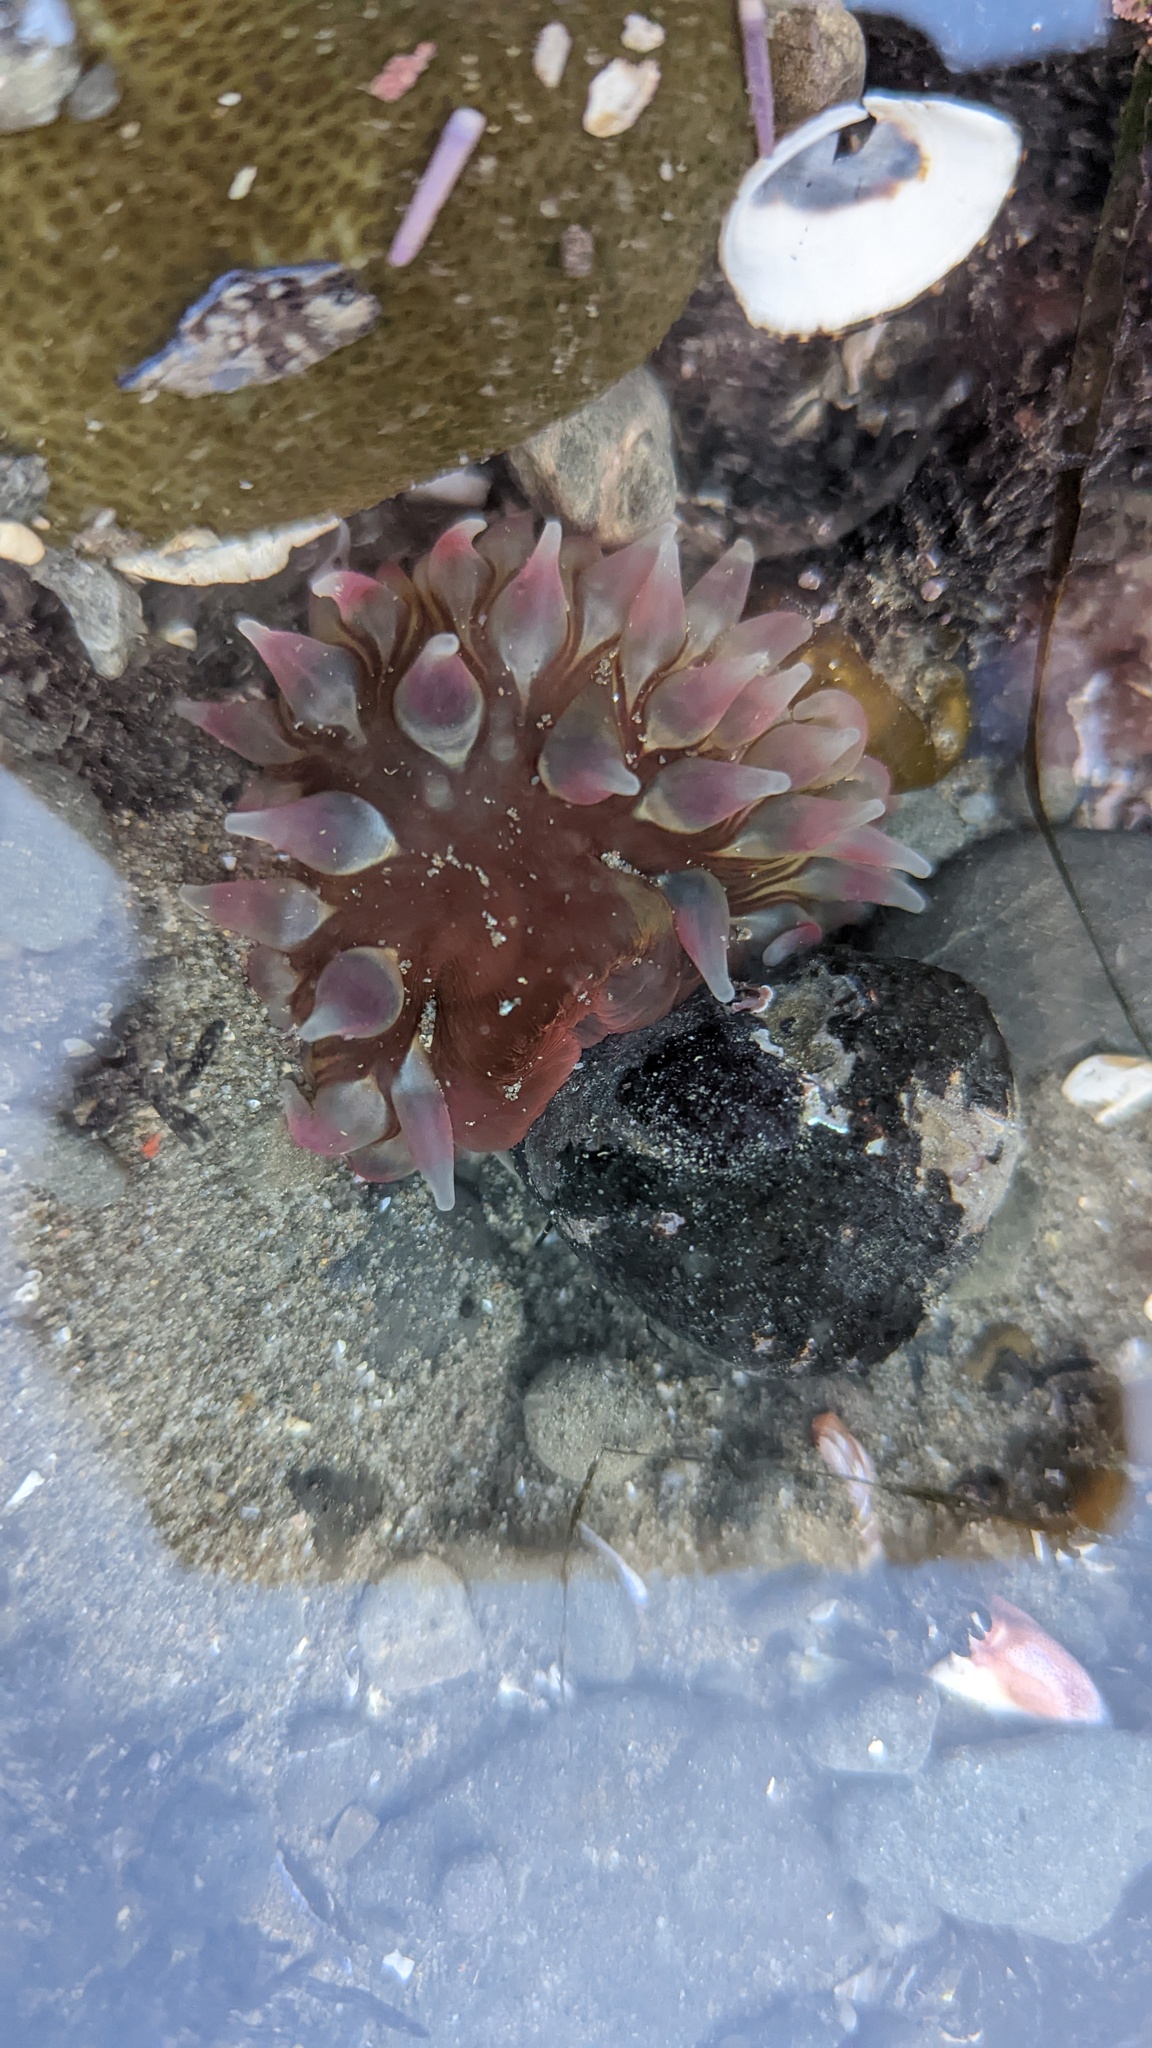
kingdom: Animalia
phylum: Cnidaria
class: Anthozoa
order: Actiniaria
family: Actiniidae
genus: Urticina
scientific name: Urticina clandestina
